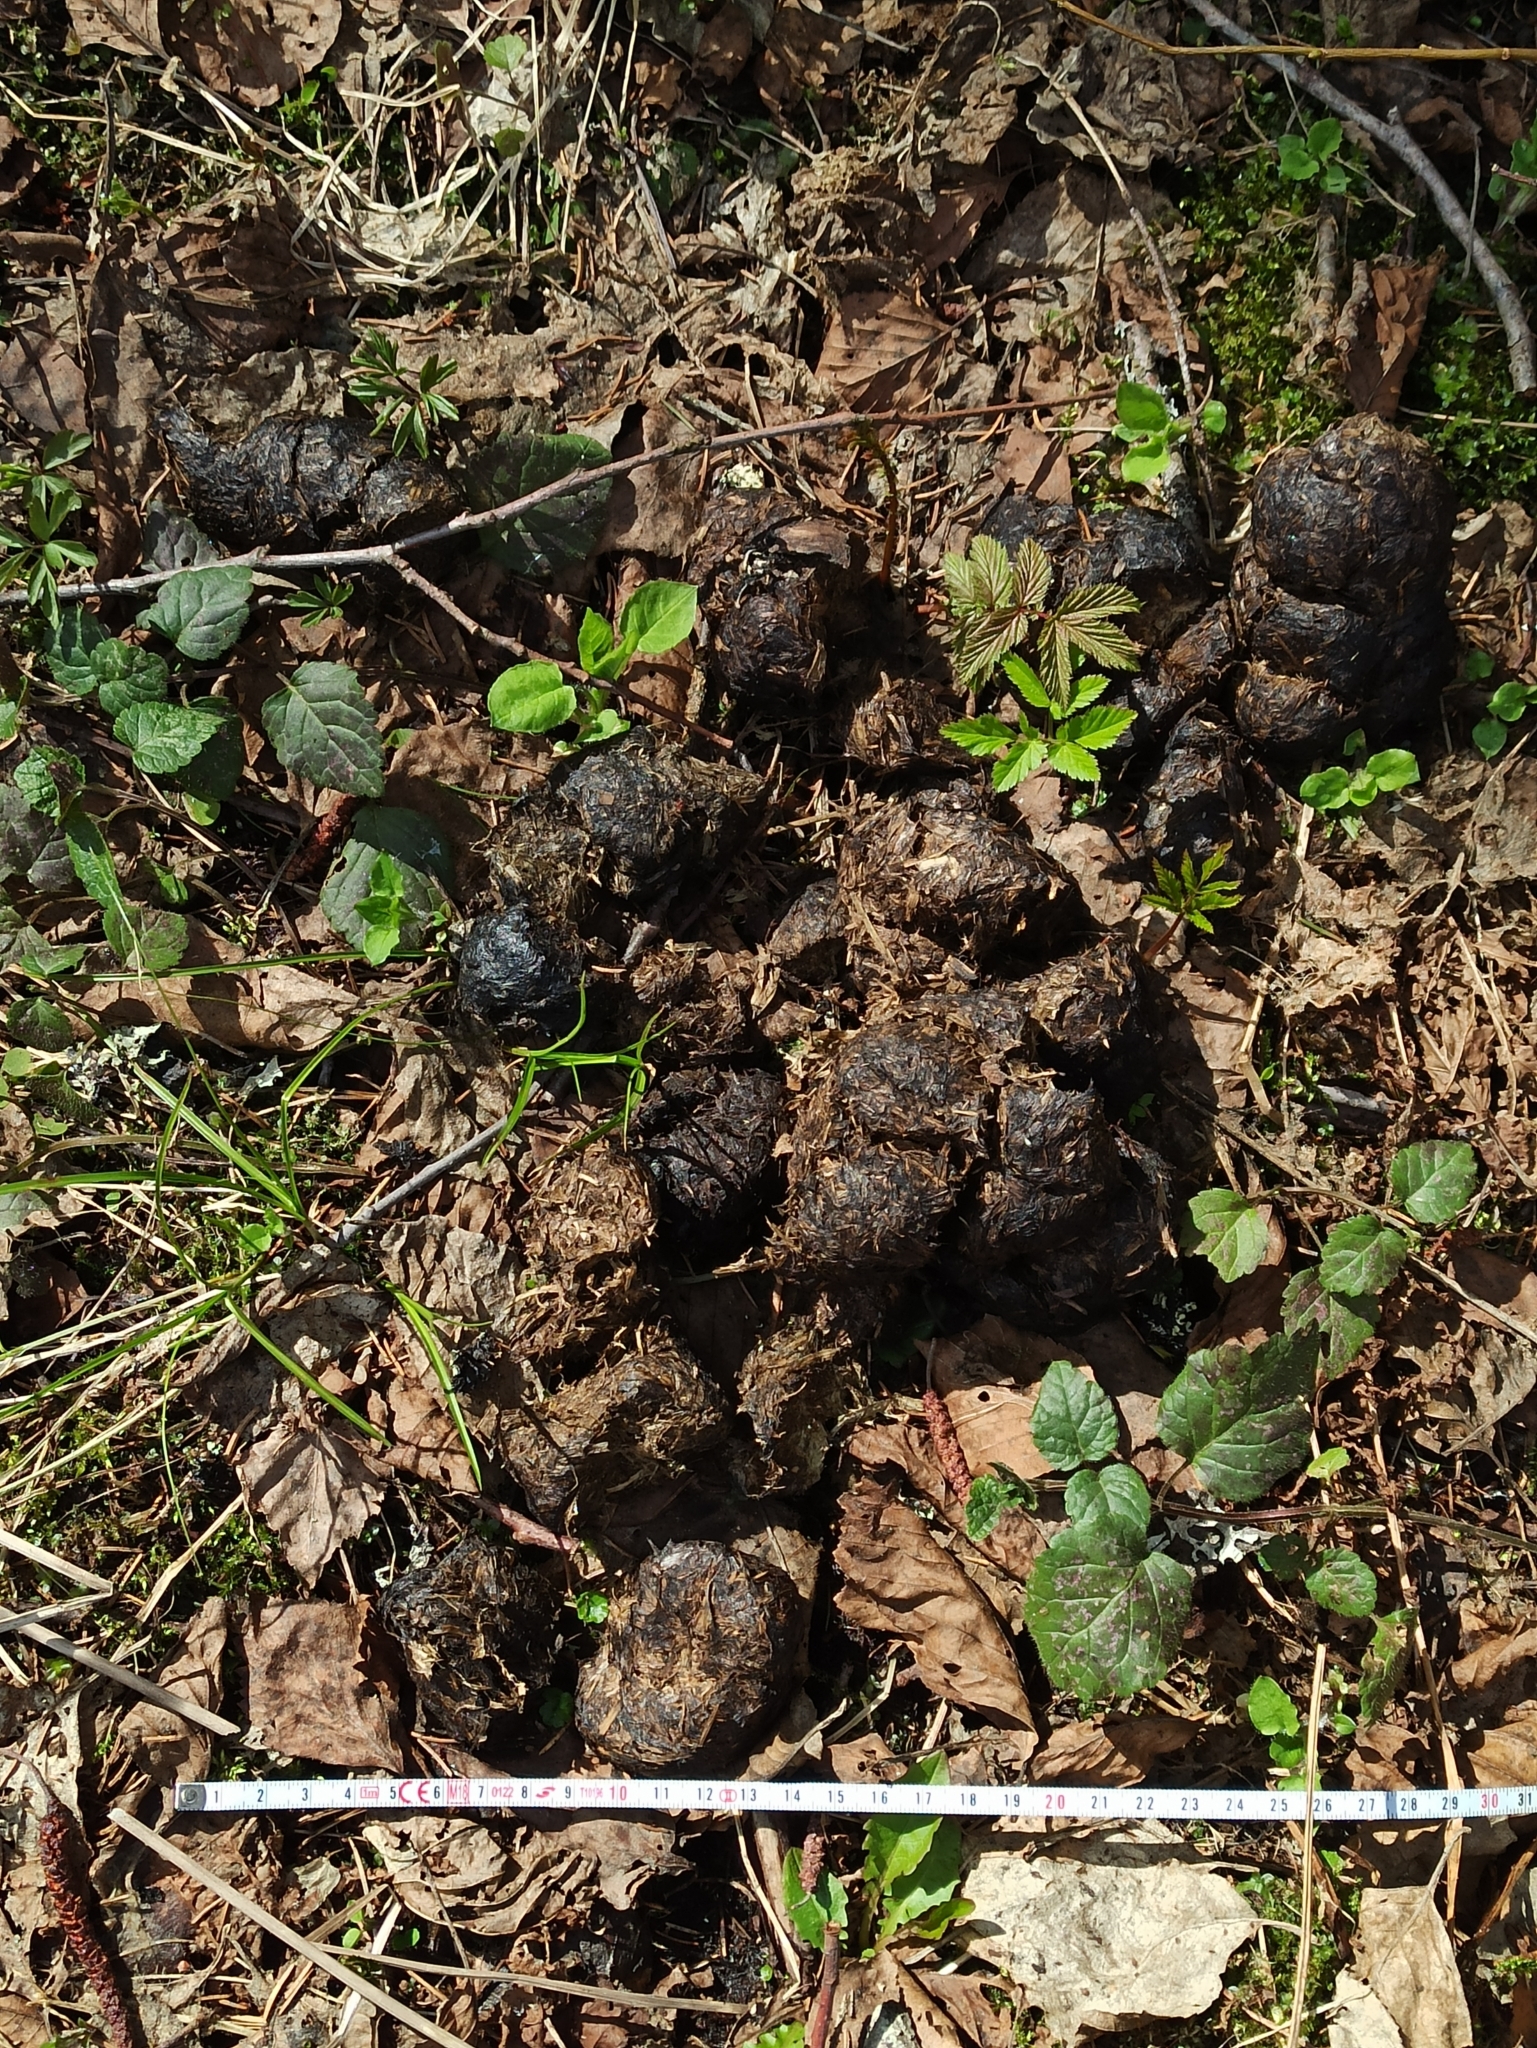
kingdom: Animalia
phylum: Chordata
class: Mammalia
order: Carnivora
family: Ursidae
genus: Ursus
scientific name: Ursus arctos
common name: Brown bear
